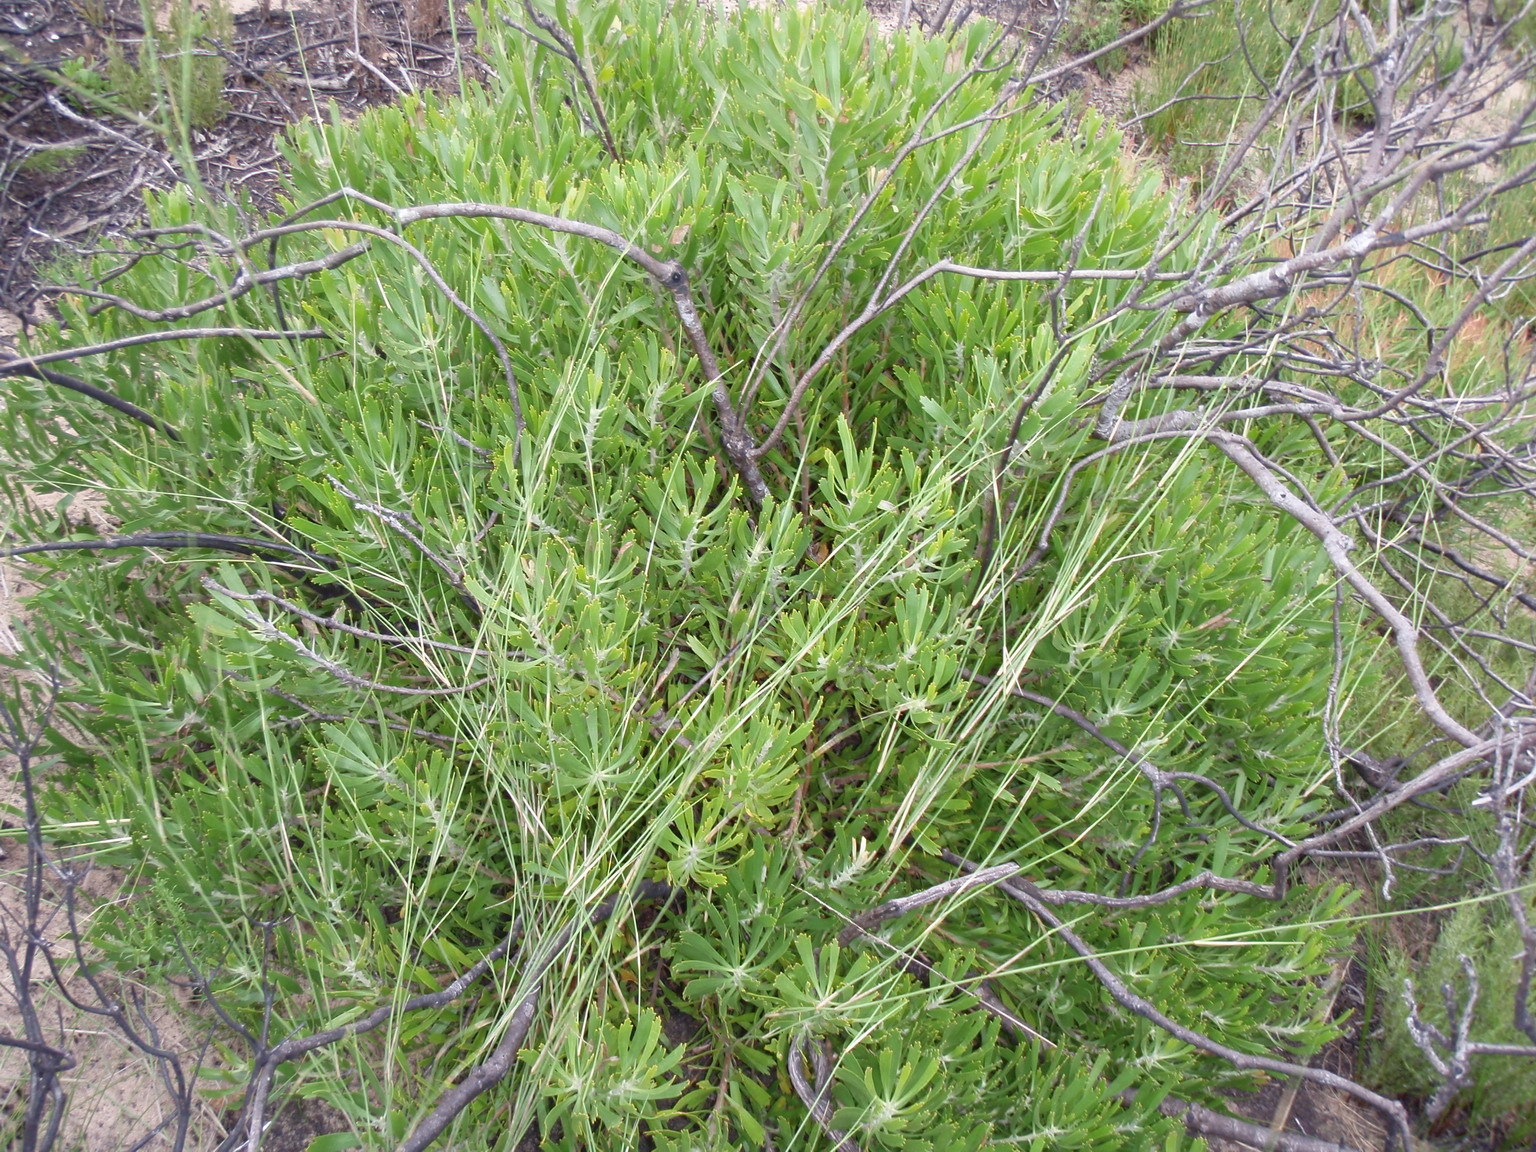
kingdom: Plantae
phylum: Tracheophyta
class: Magnoliopsida
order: Proteales
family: Proteaceae
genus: Leucospermum
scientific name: Leucospermum cuneiforme
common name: Common pincushion
